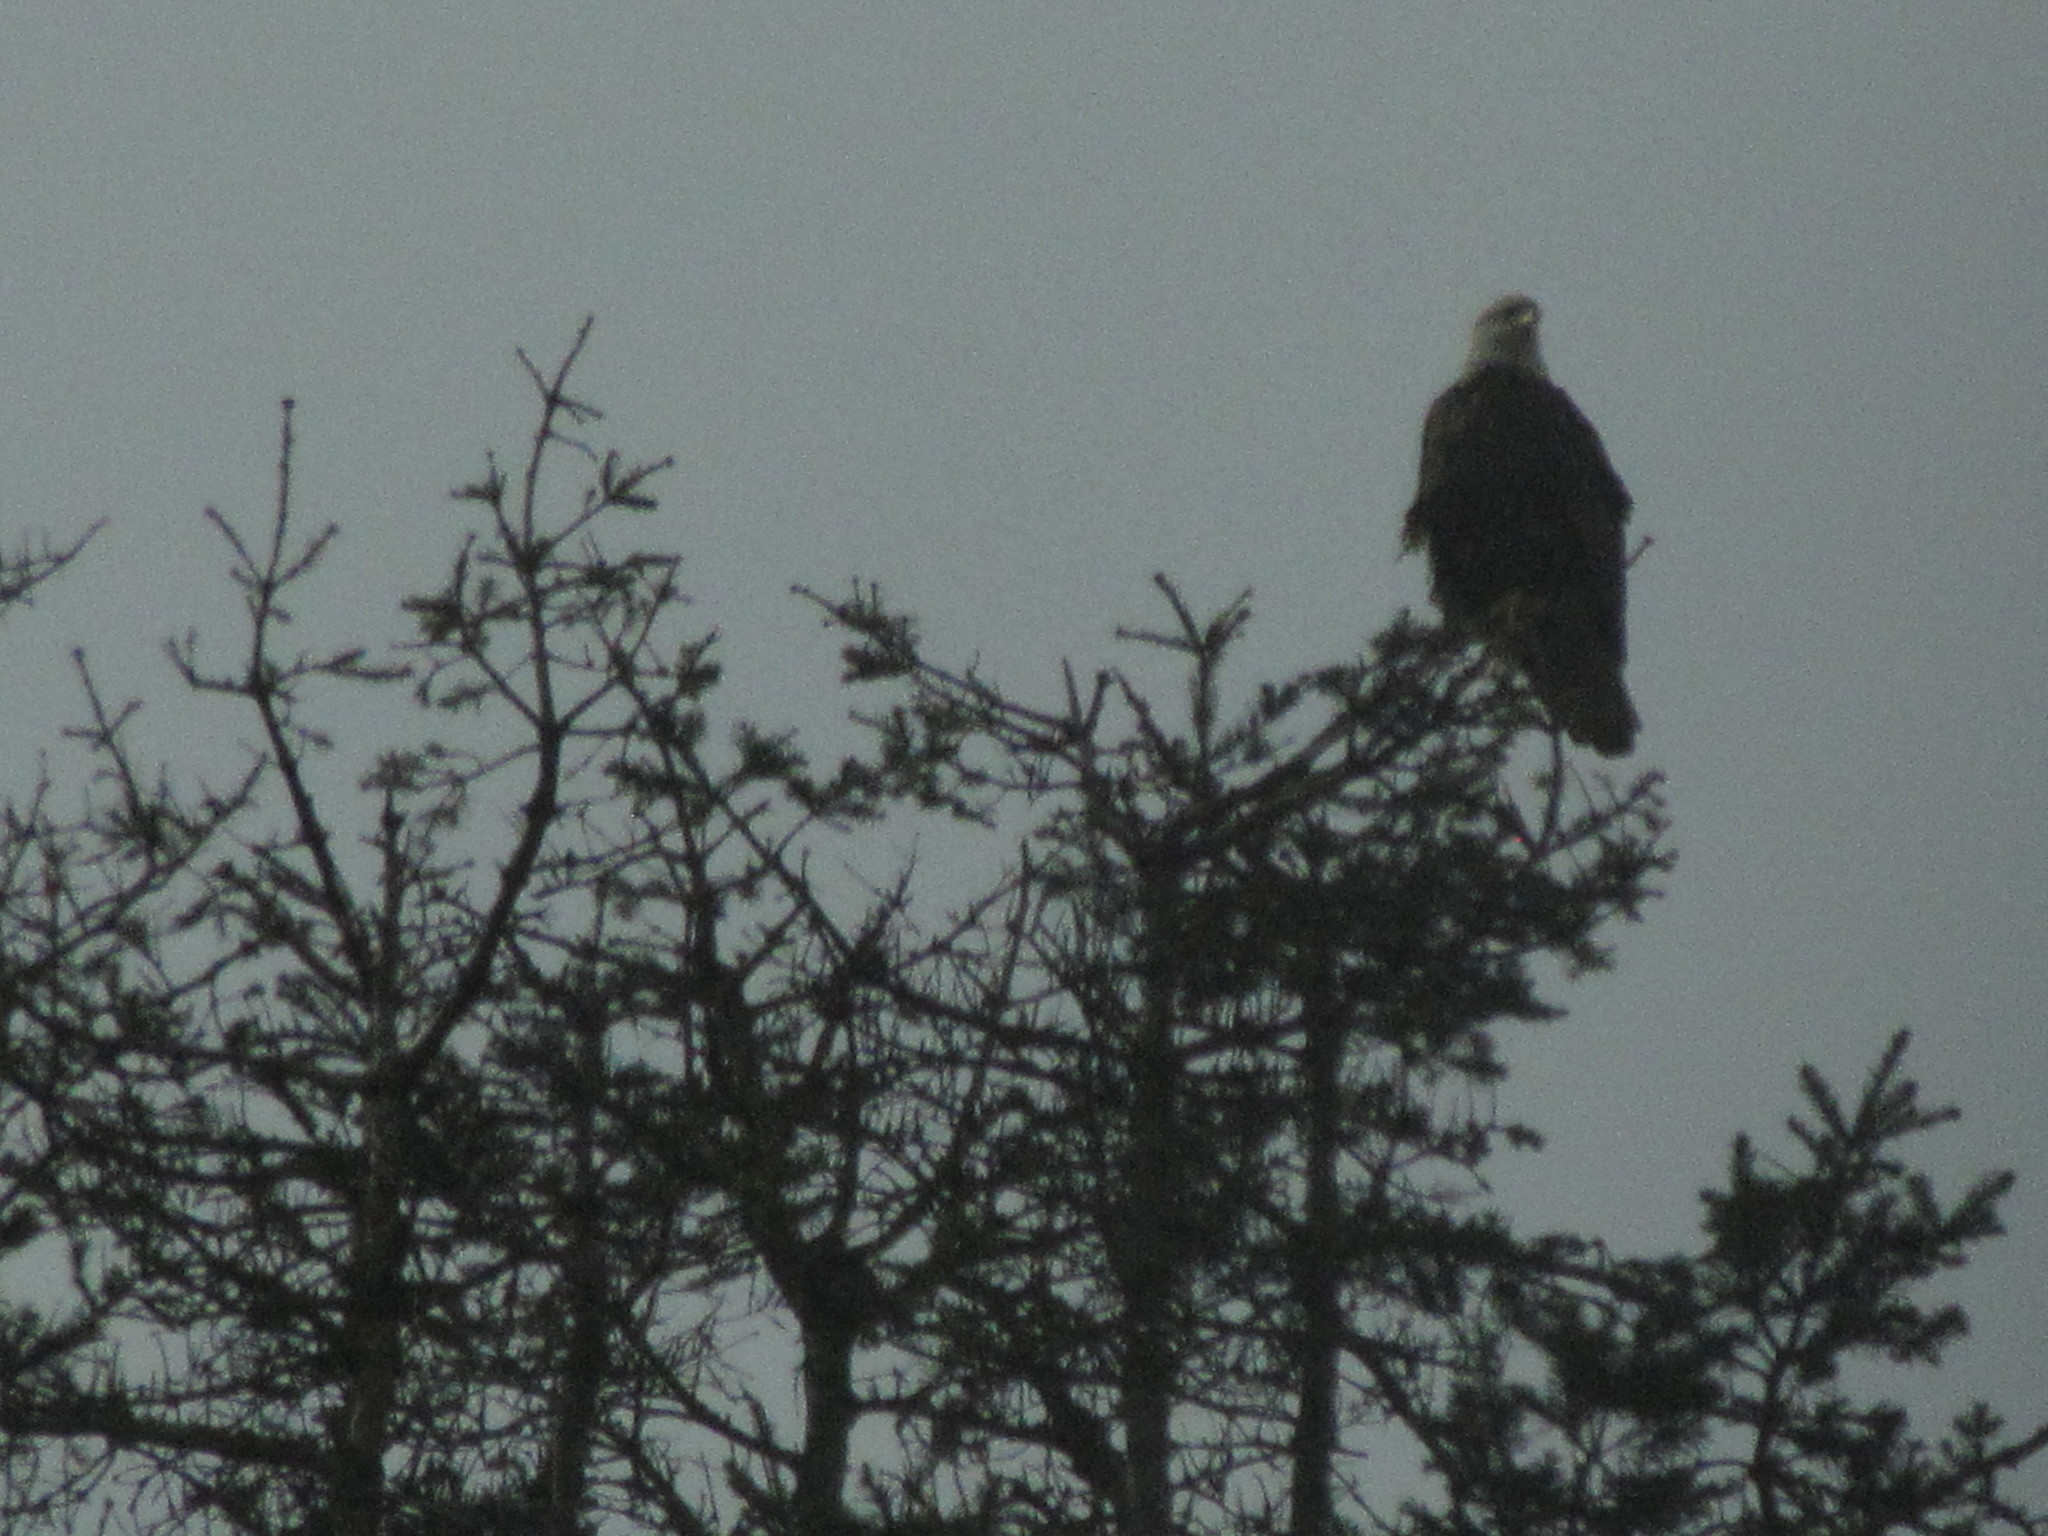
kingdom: Animalia
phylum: Chordata
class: Aves
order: Accipitriformes
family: Accipitridae
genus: Haliaeetus
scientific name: Haliaeetus leucocephalus
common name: Bald eagle
